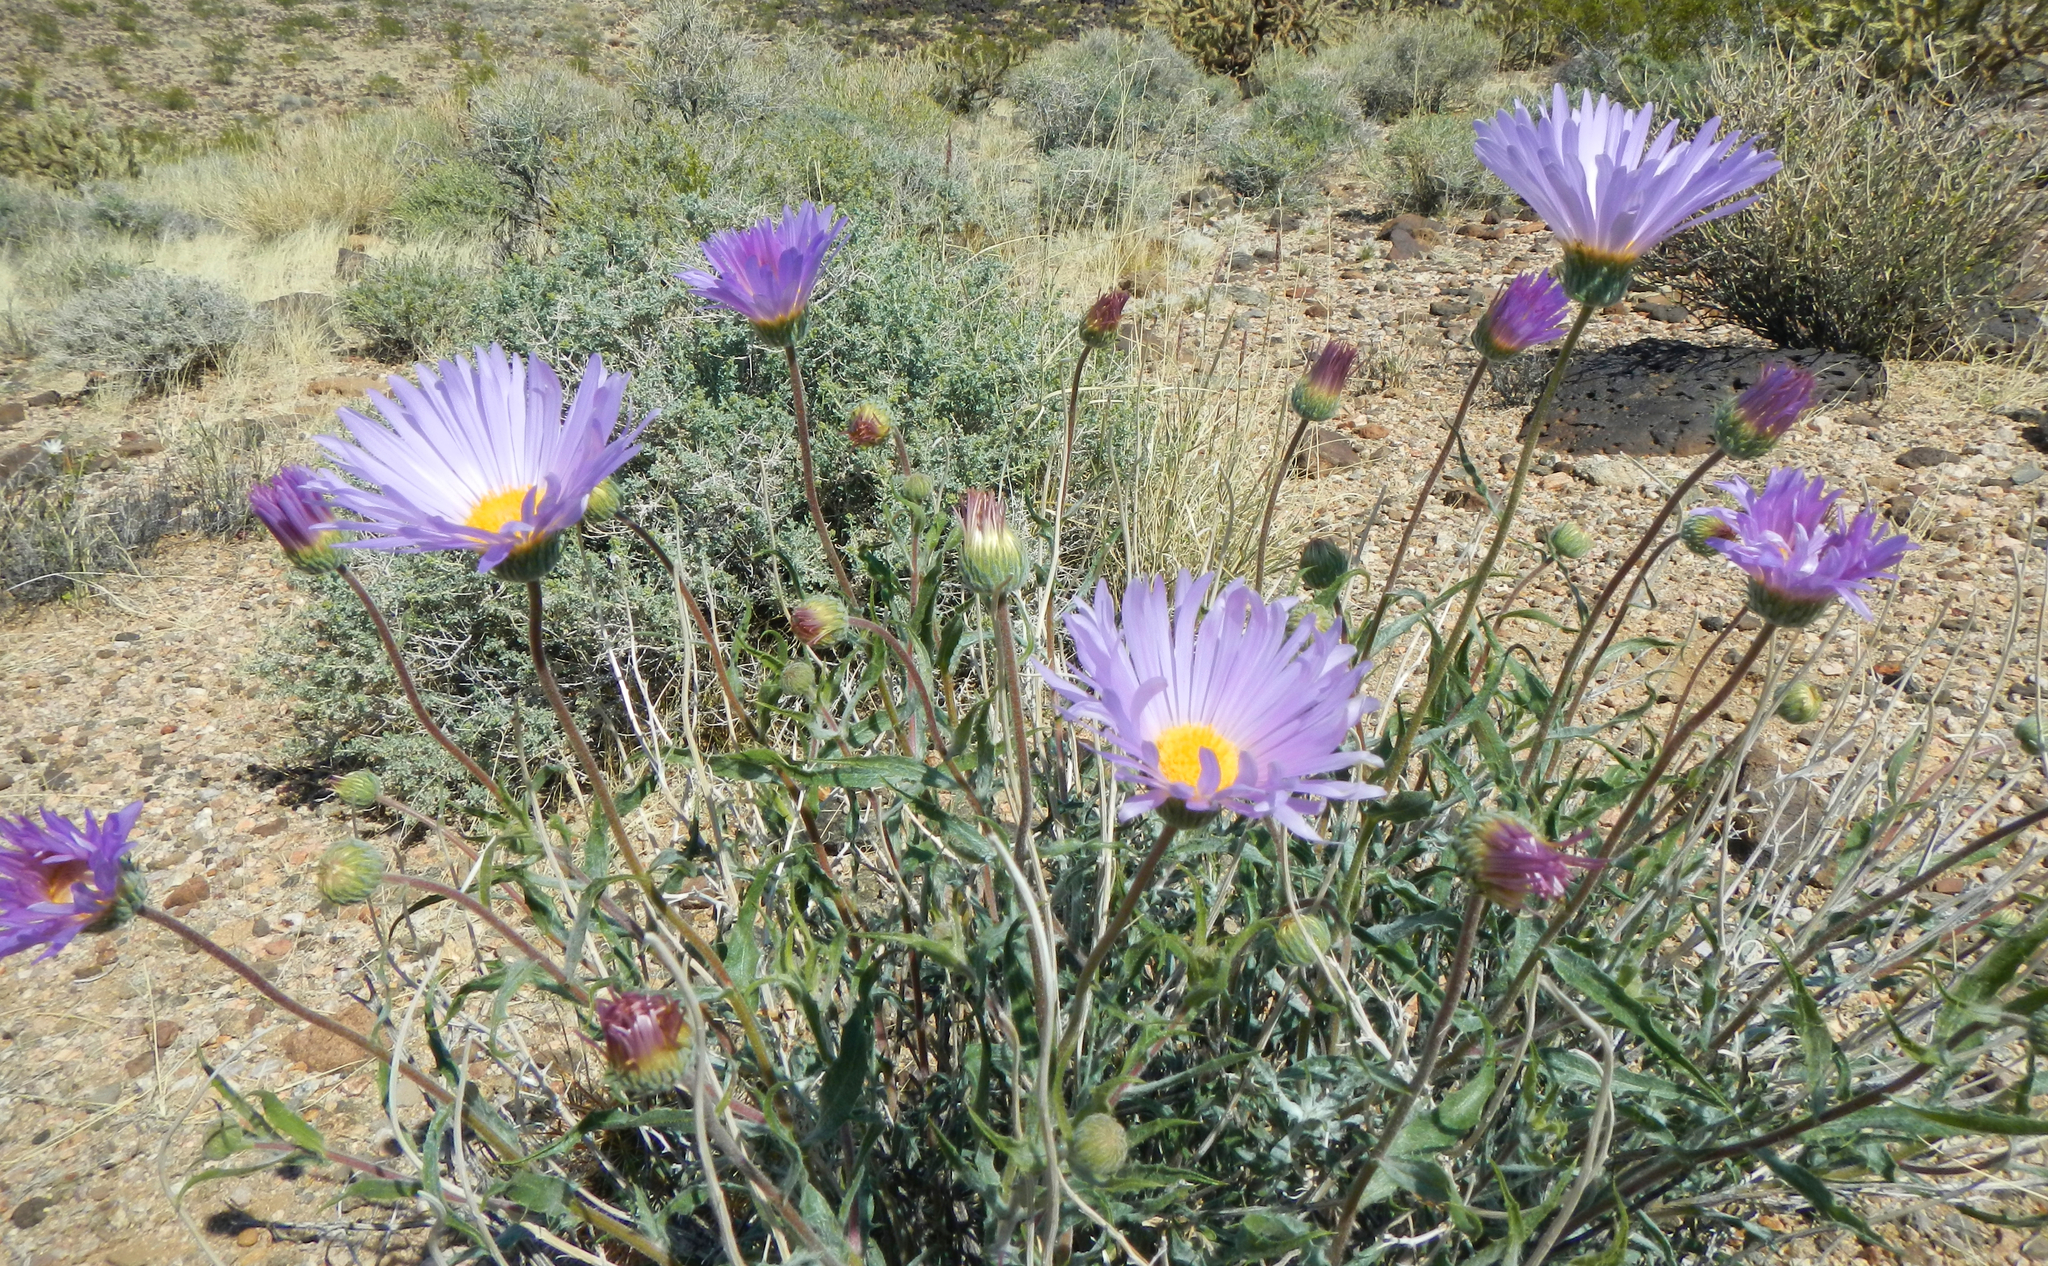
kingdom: Plantae
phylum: Tracheophyta
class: Magnoliopsida
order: Asterales
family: Asteraceae
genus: Xylorhiza
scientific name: Xylorhiza tortifolia
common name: Hurt-leaf woody-aster
